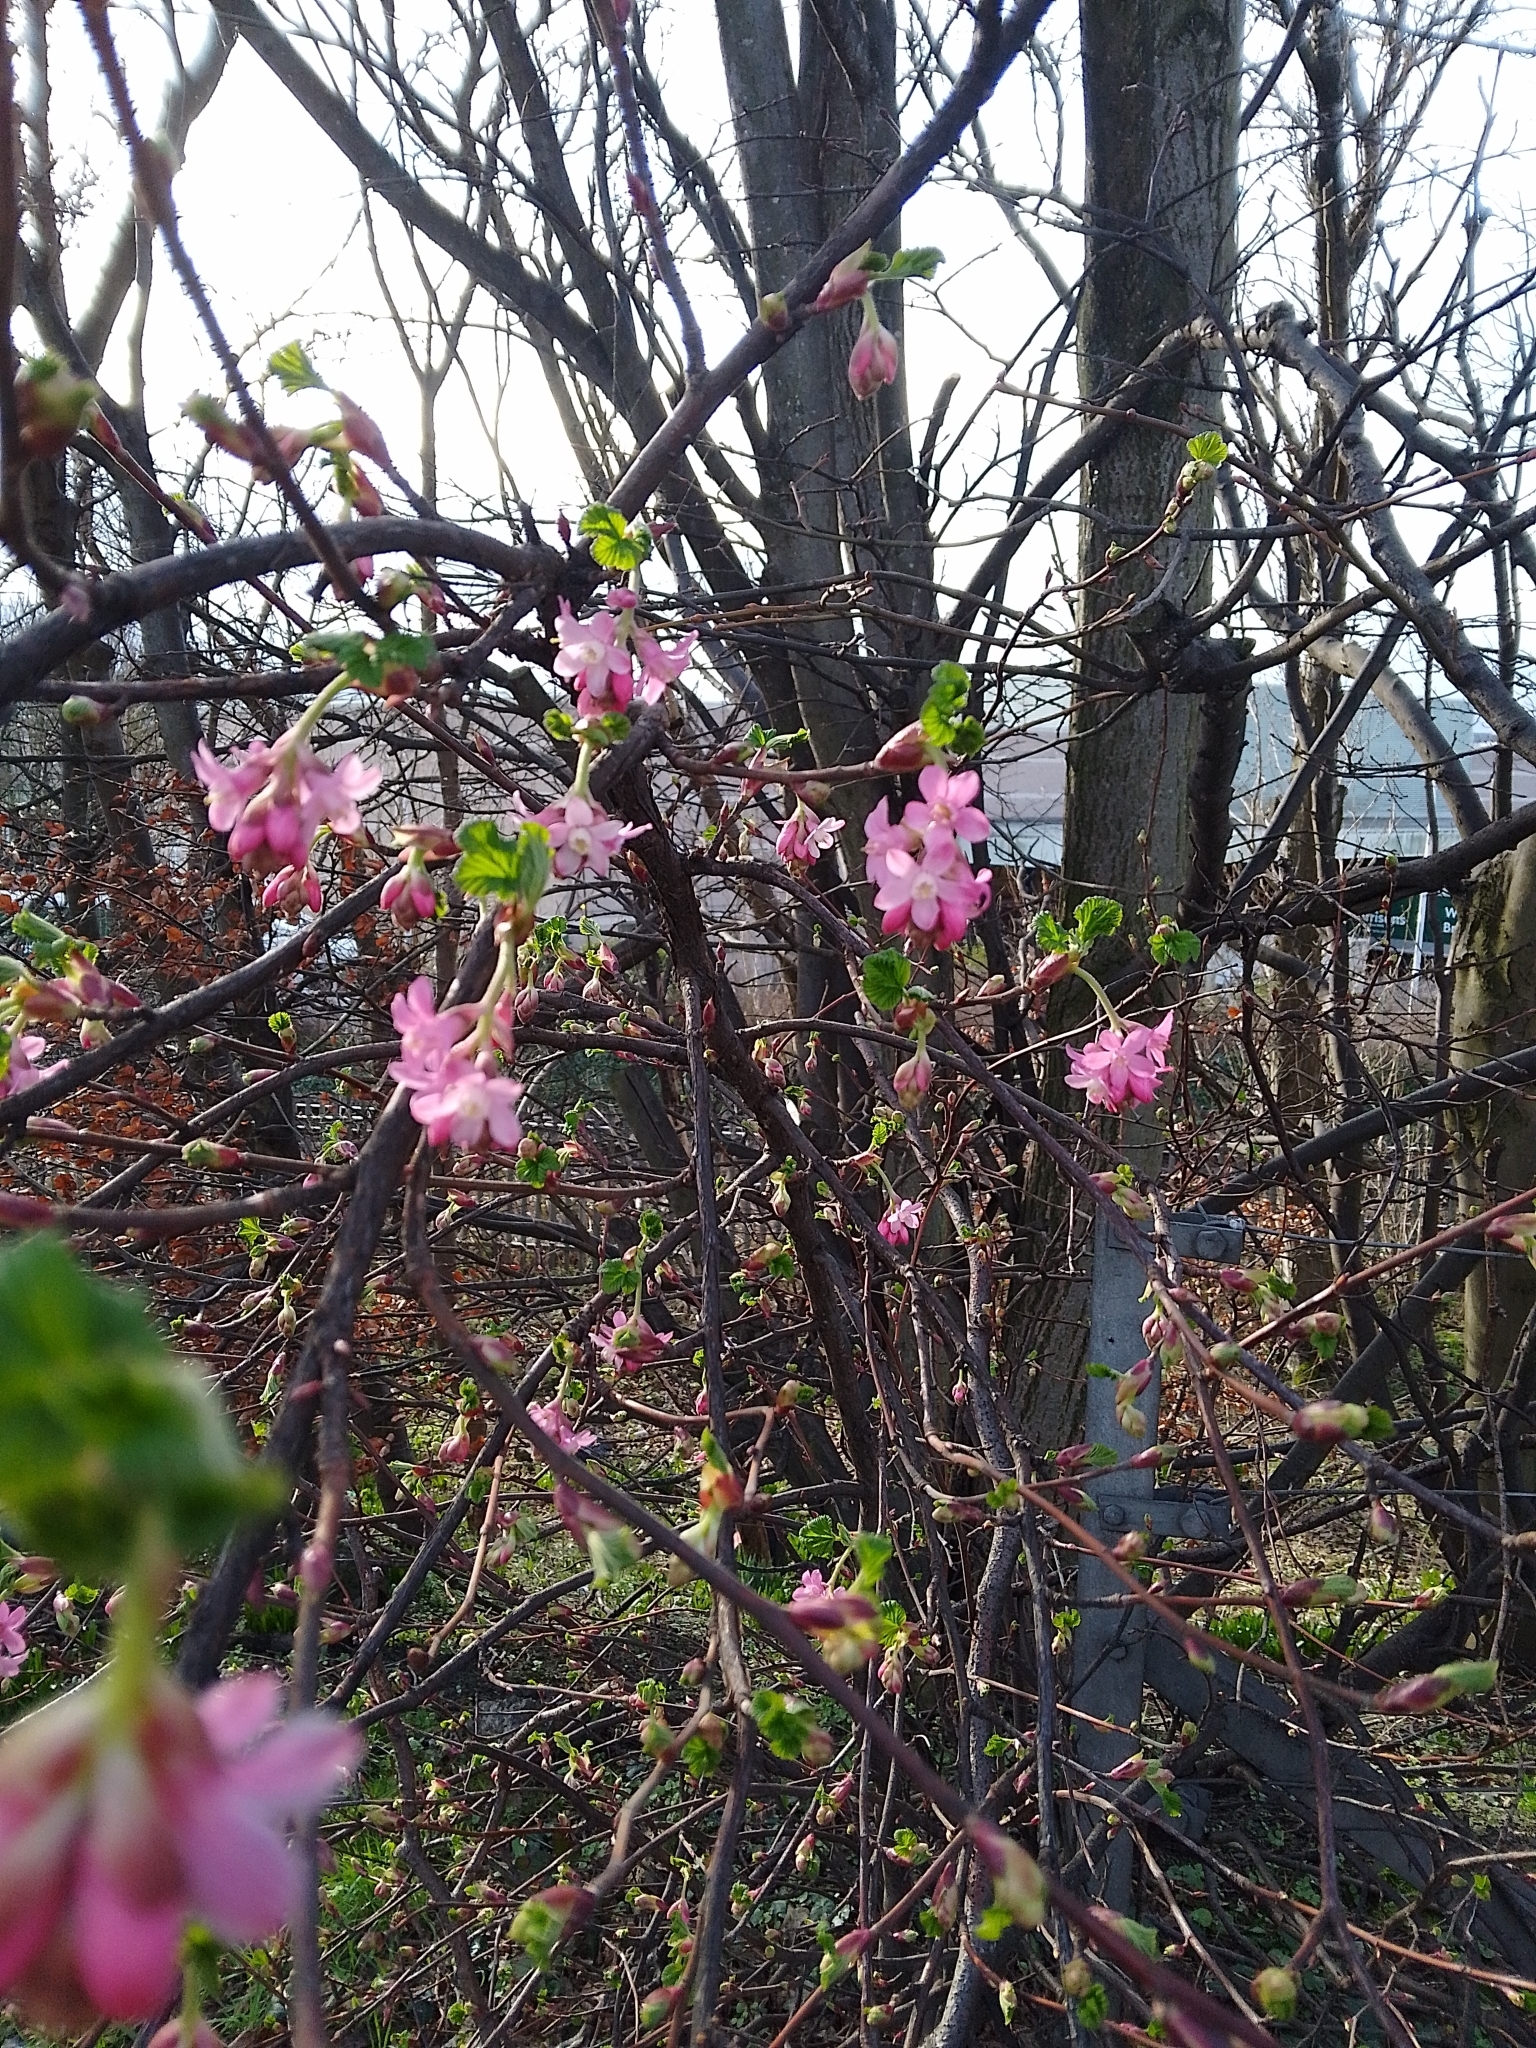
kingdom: Plantae
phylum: Tracheophyta
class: Magnoliopsida
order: Saxifragales
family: Grossulariaceae
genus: Ribes
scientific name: Ribes sanguineum
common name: Flowering currant
